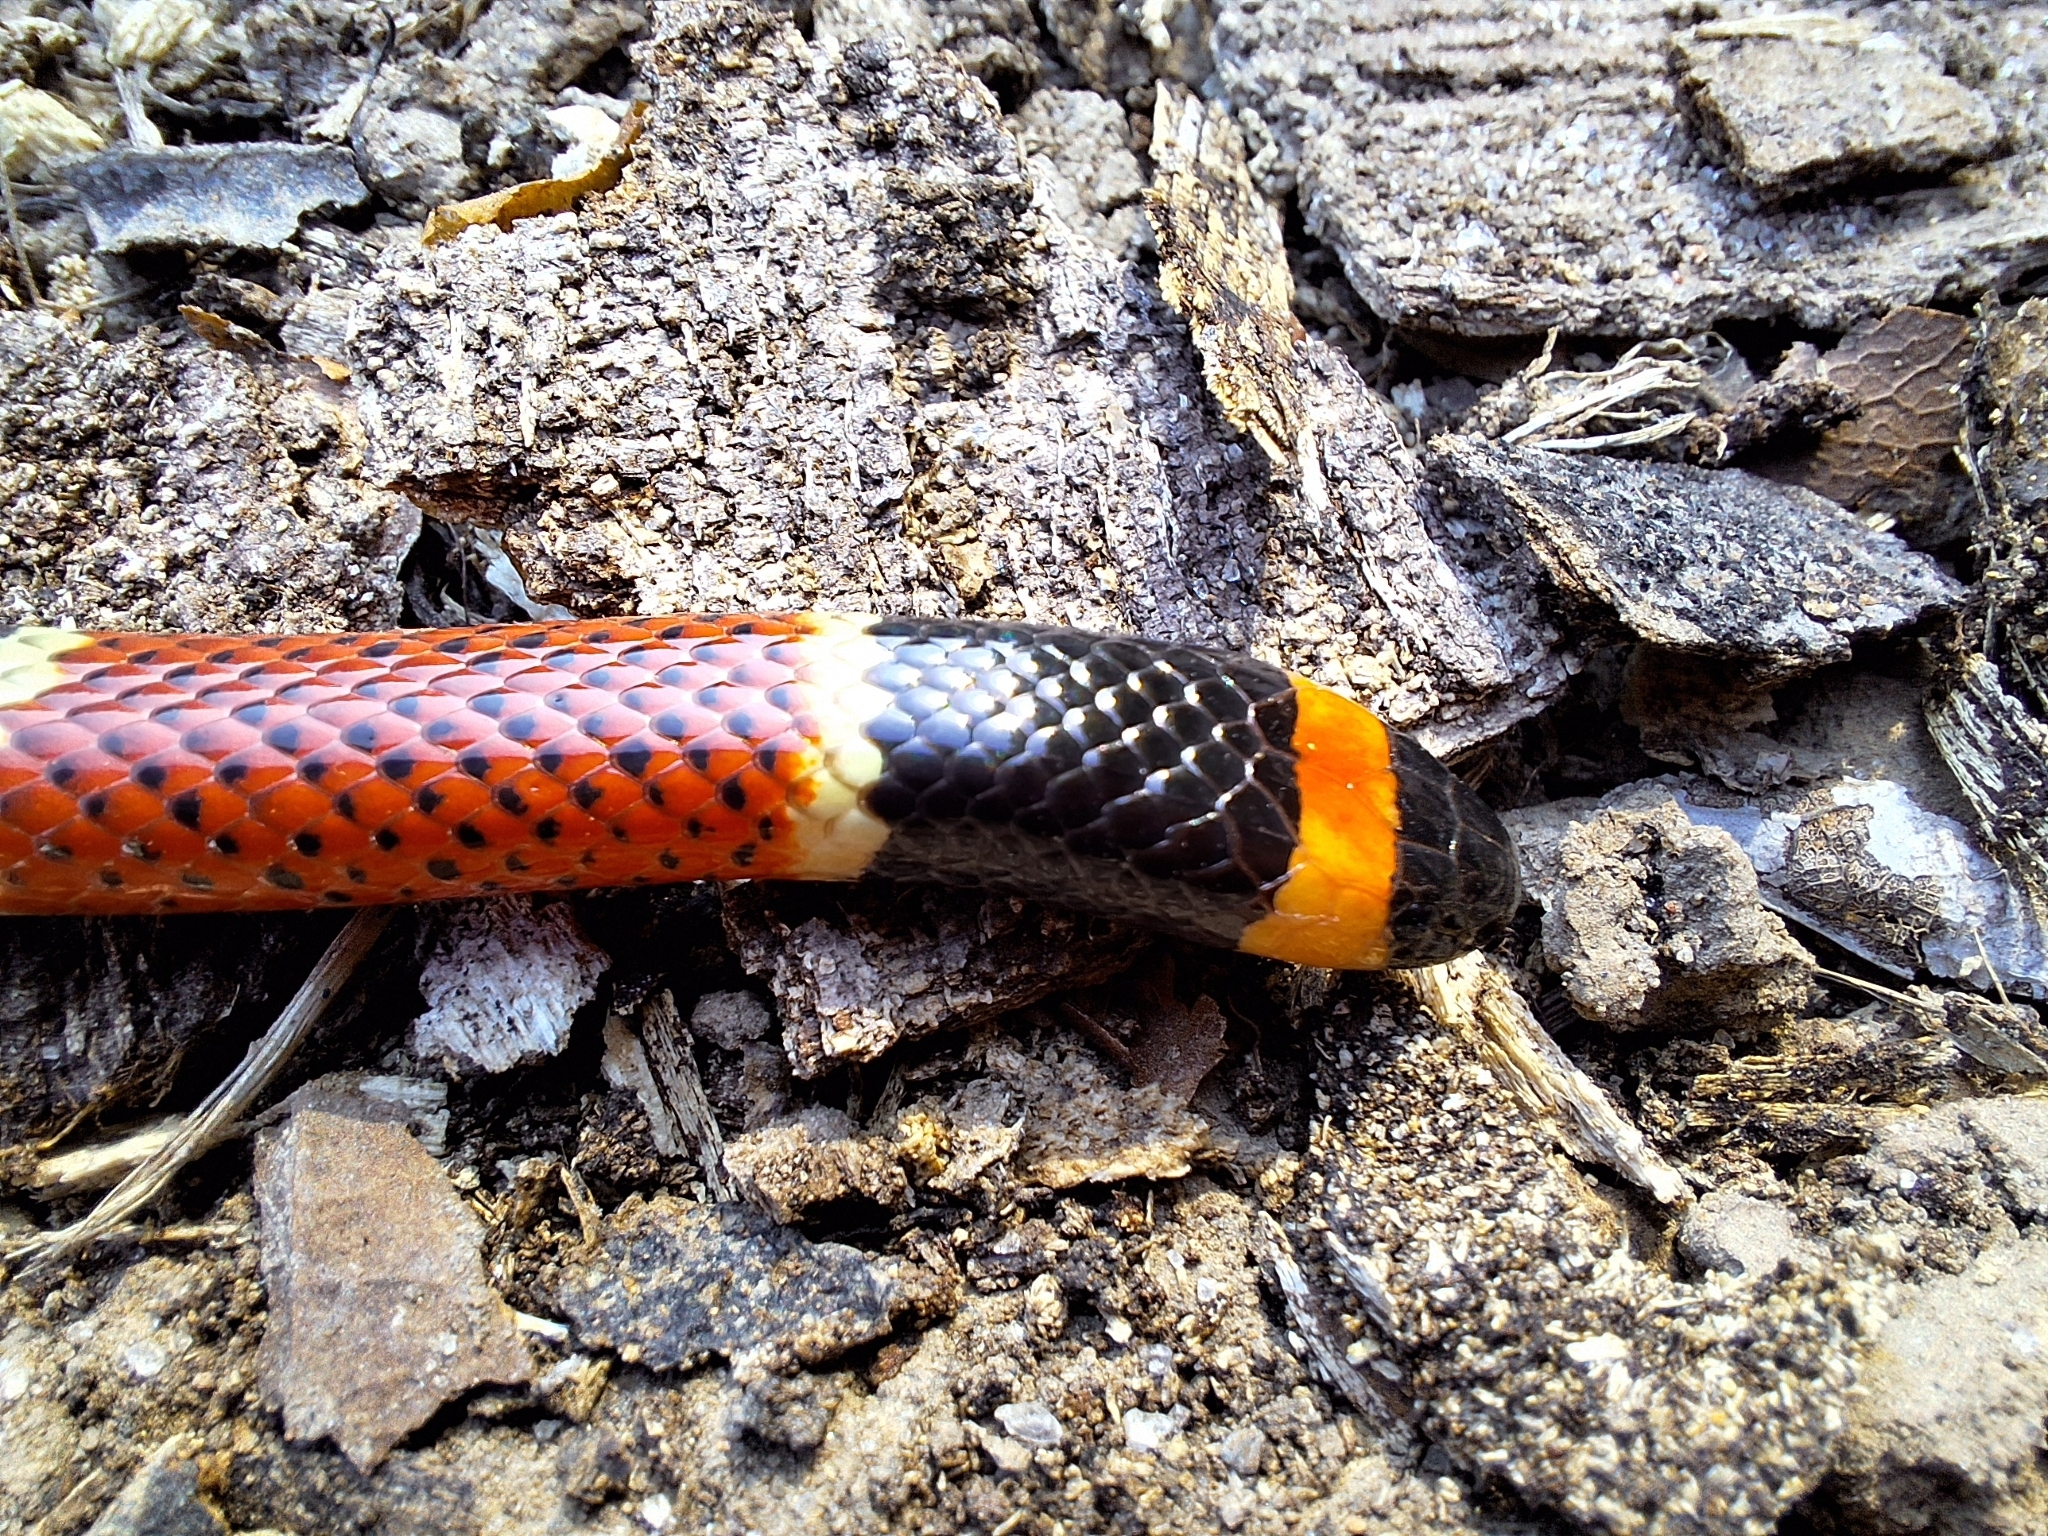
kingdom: Animalia
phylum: Chordata
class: Squamata
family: Elapidae
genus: Micrurus
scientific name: Micrurus nigrocinctus
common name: Babaspul [babaspul]
